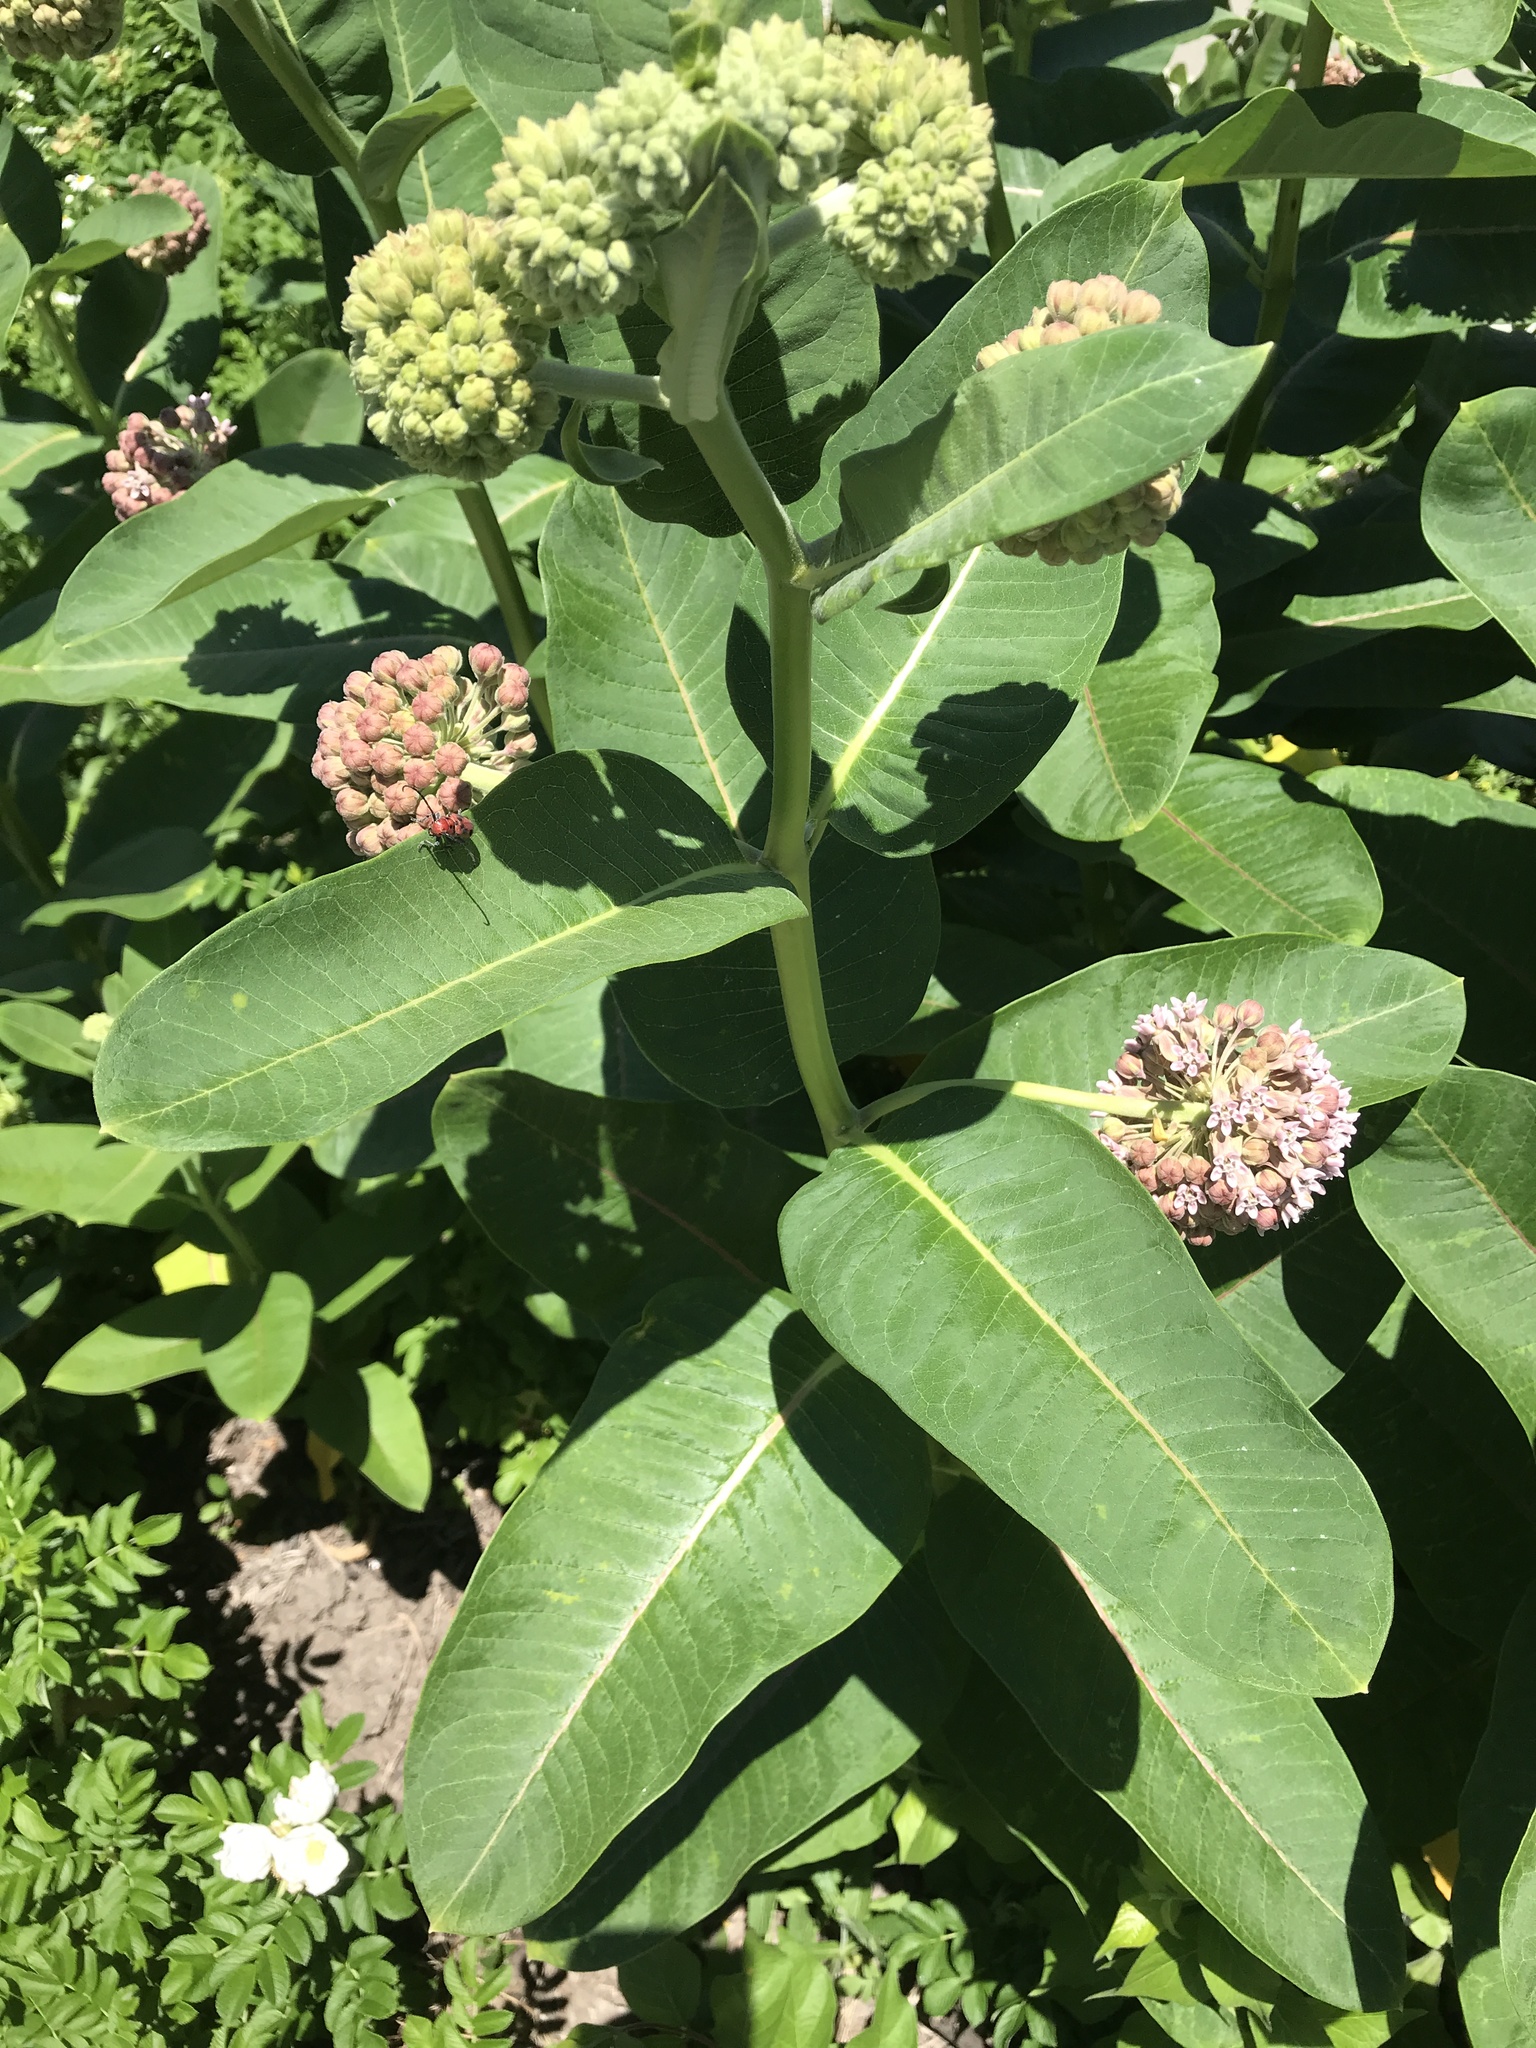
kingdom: Plantae
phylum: Tracheophyta
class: Magnoliopsida
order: Gentianales
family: Apocynaceae
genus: Asclepias
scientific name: Asclepias syriaca
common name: Common milkweed
